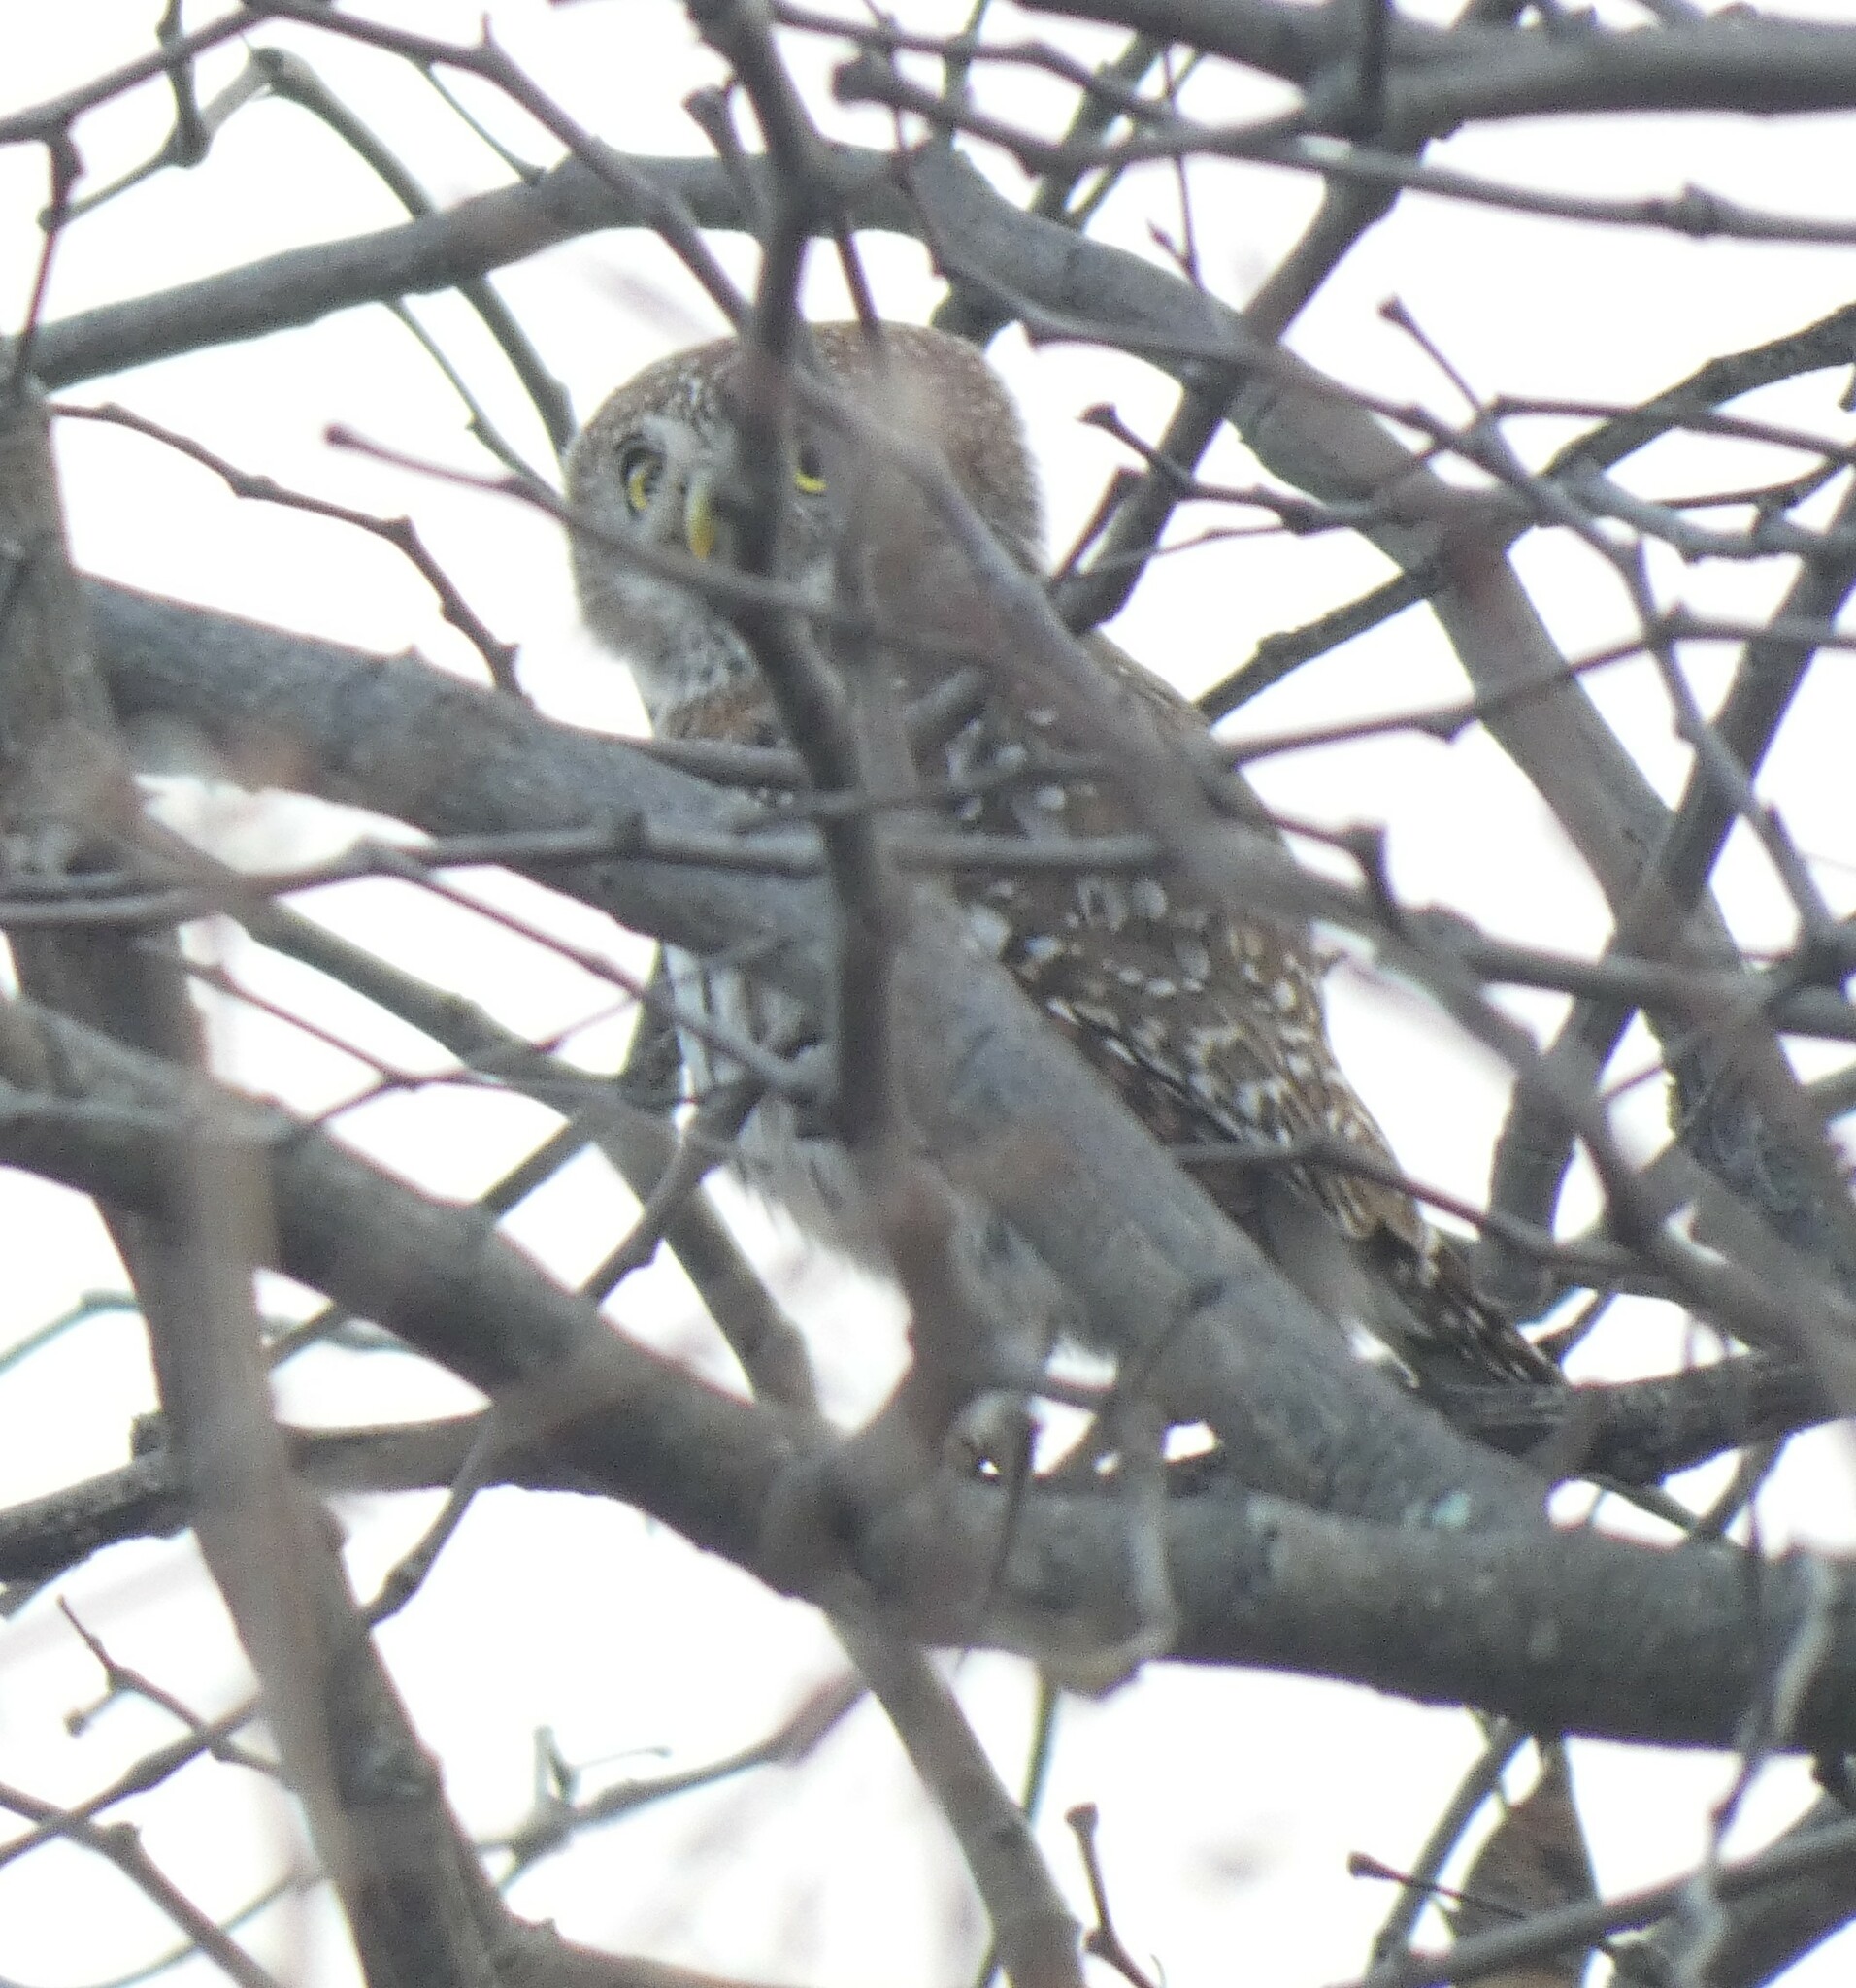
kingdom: Animalia
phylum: Chordata
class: Aves
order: Strigiformes
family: Strigidae
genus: Glaucidium
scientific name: Glaucidium perlatum
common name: Pearl-spotted owlet
